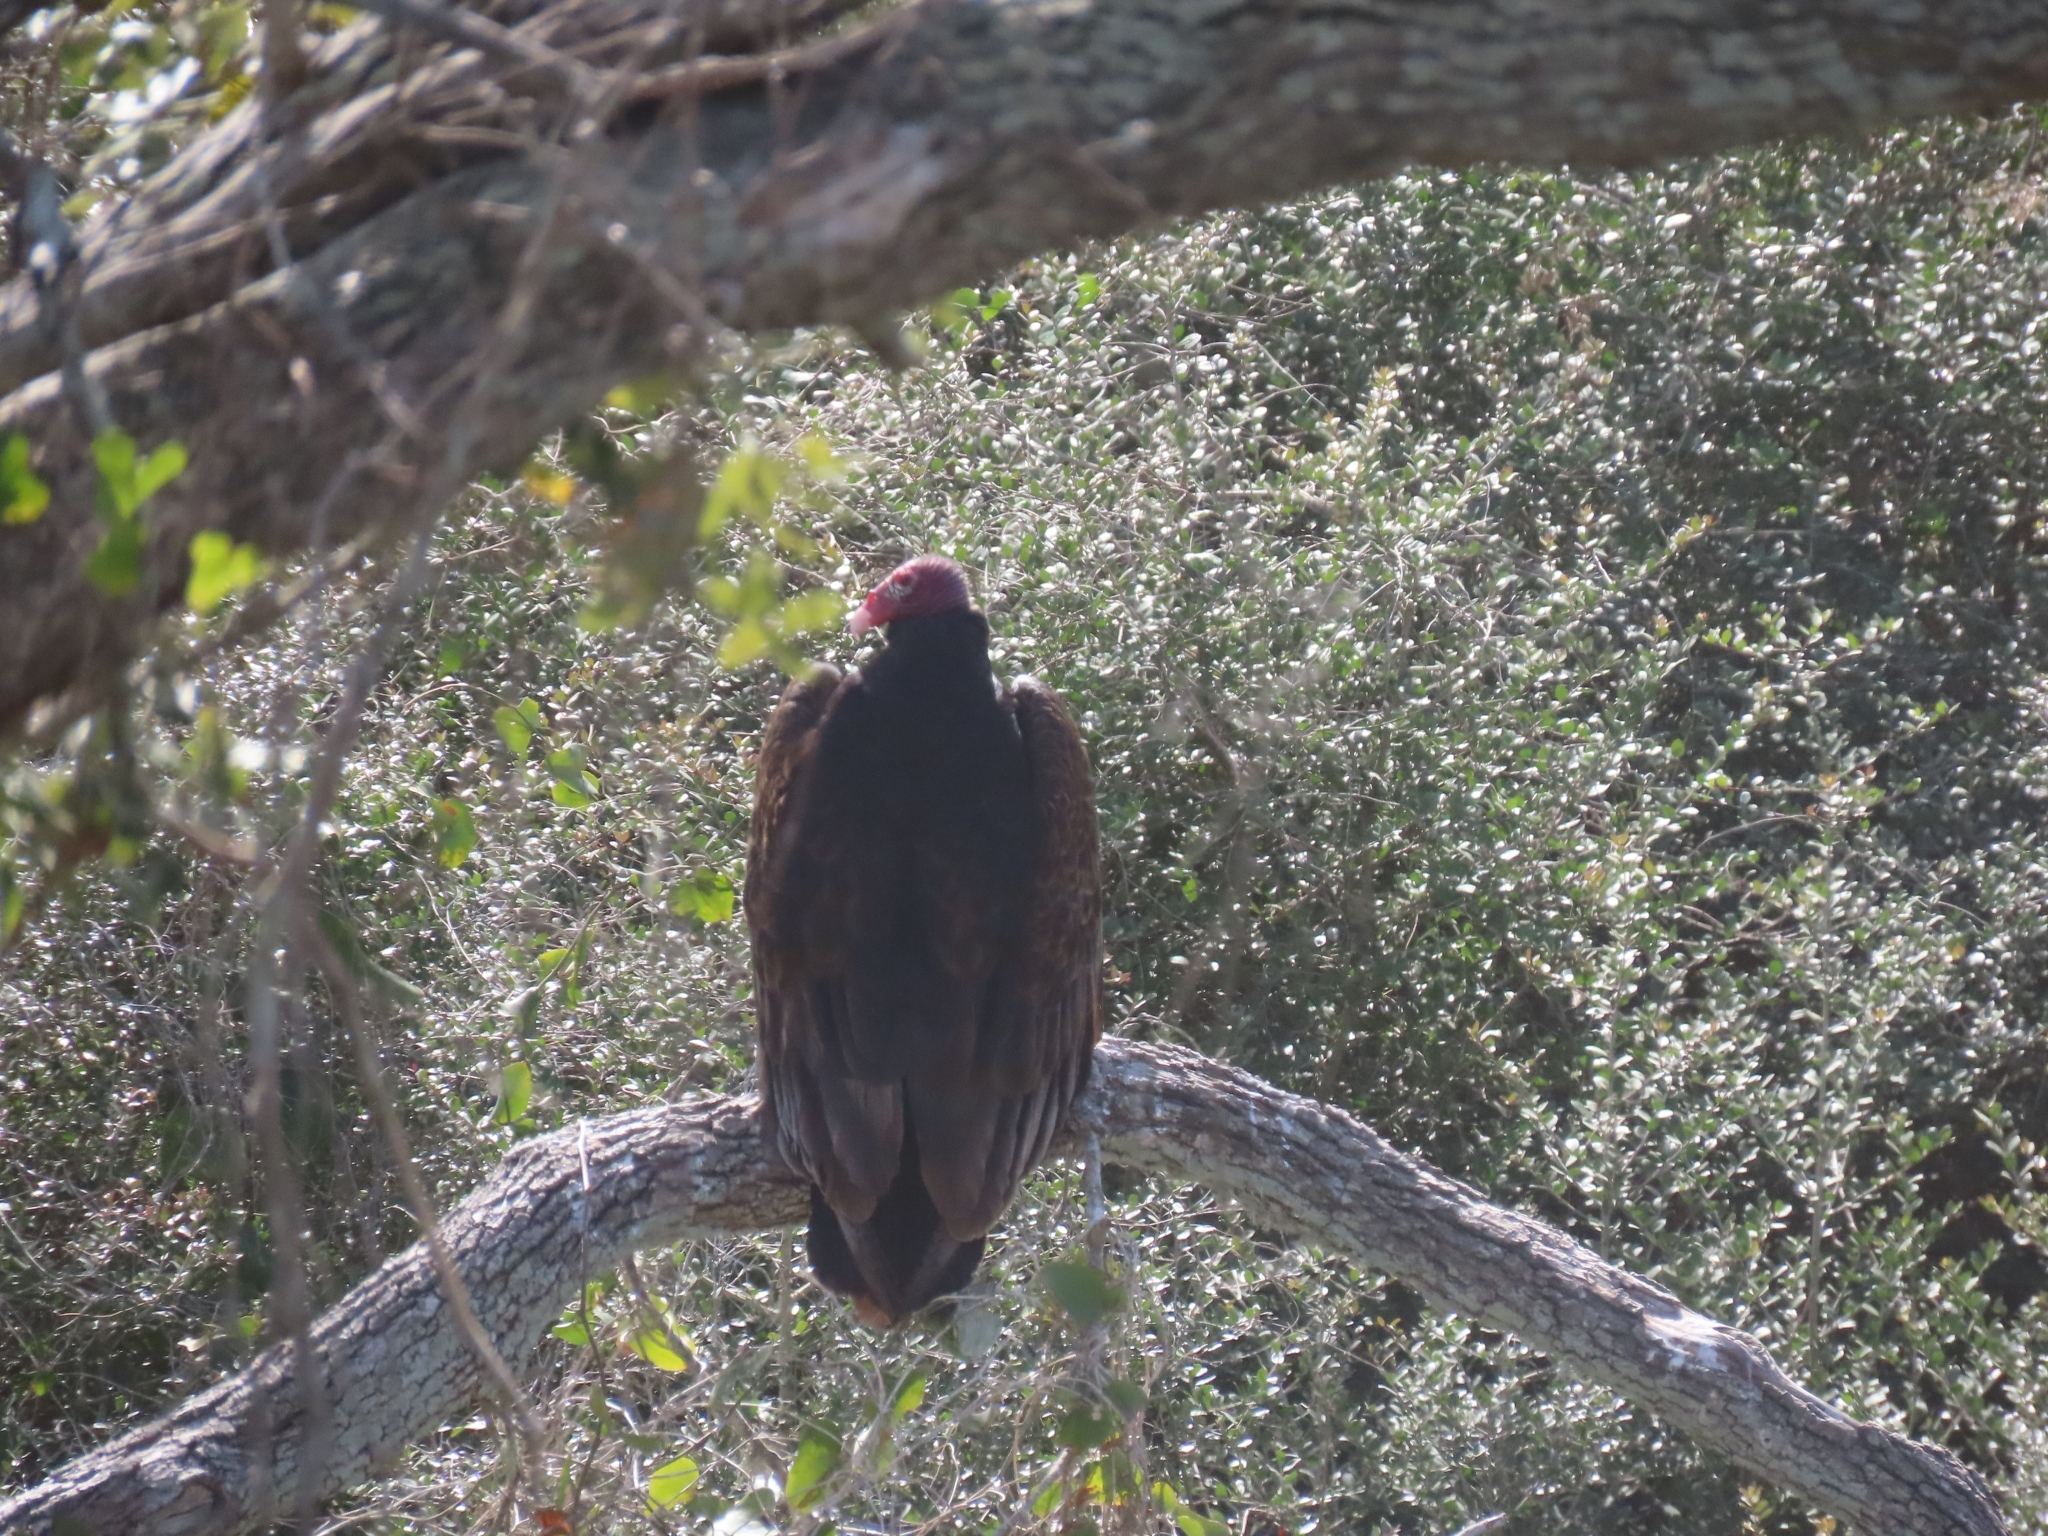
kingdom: Animalia
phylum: Chordata
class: Aves
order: Accipitriformes
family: Cathartidae
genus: Cathartes
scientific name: Cathartes aura
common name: Turkey vulture
